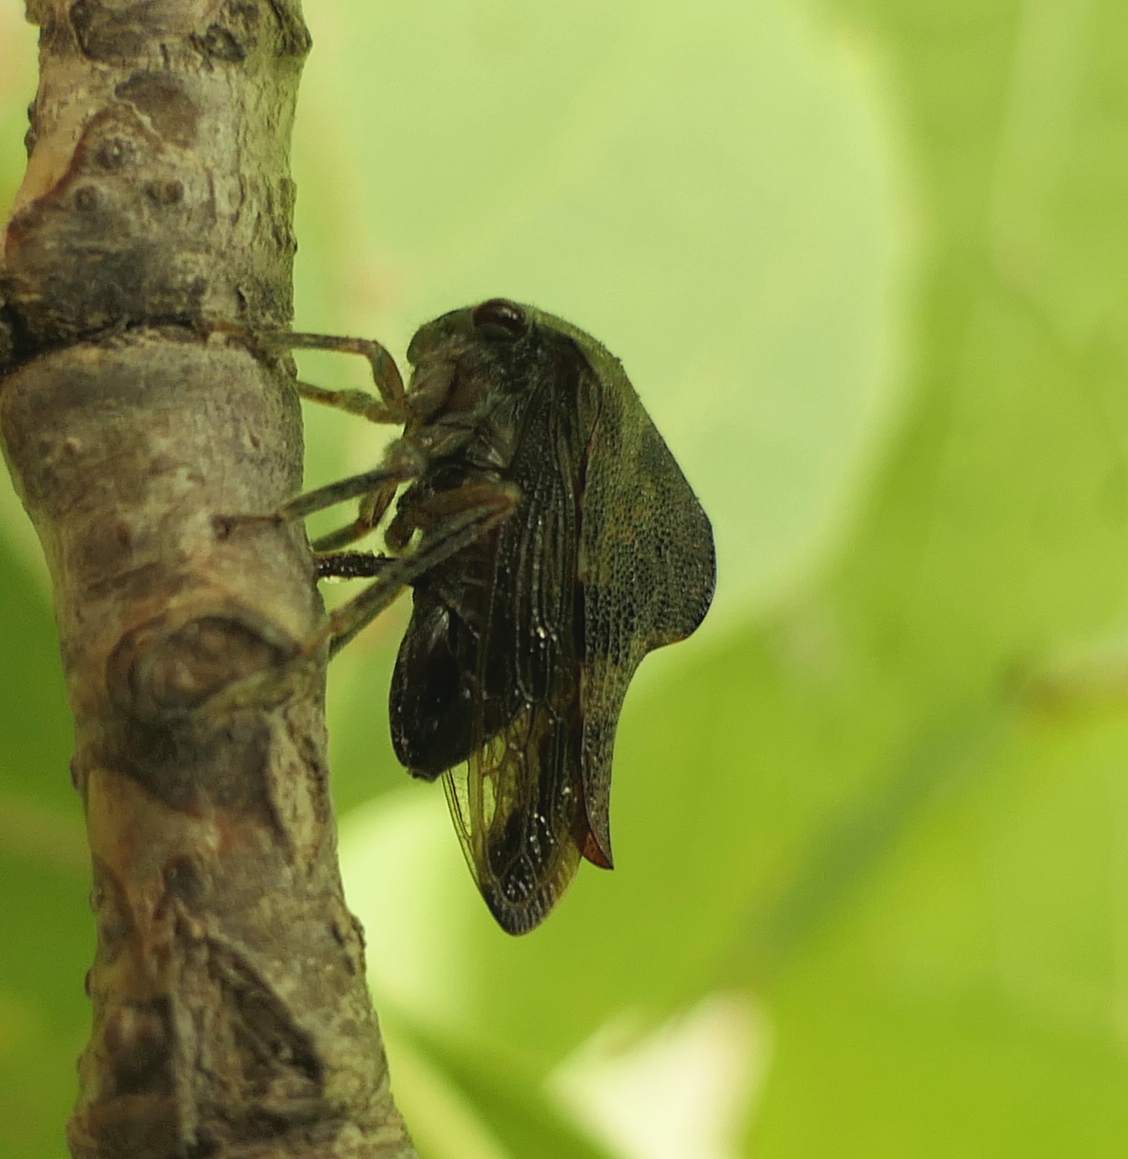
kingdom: Animalia
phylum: Arthropoda
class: Insecta
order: Hemiptera
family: Membracidae
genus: Telamona
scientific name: Telamona reclivata
